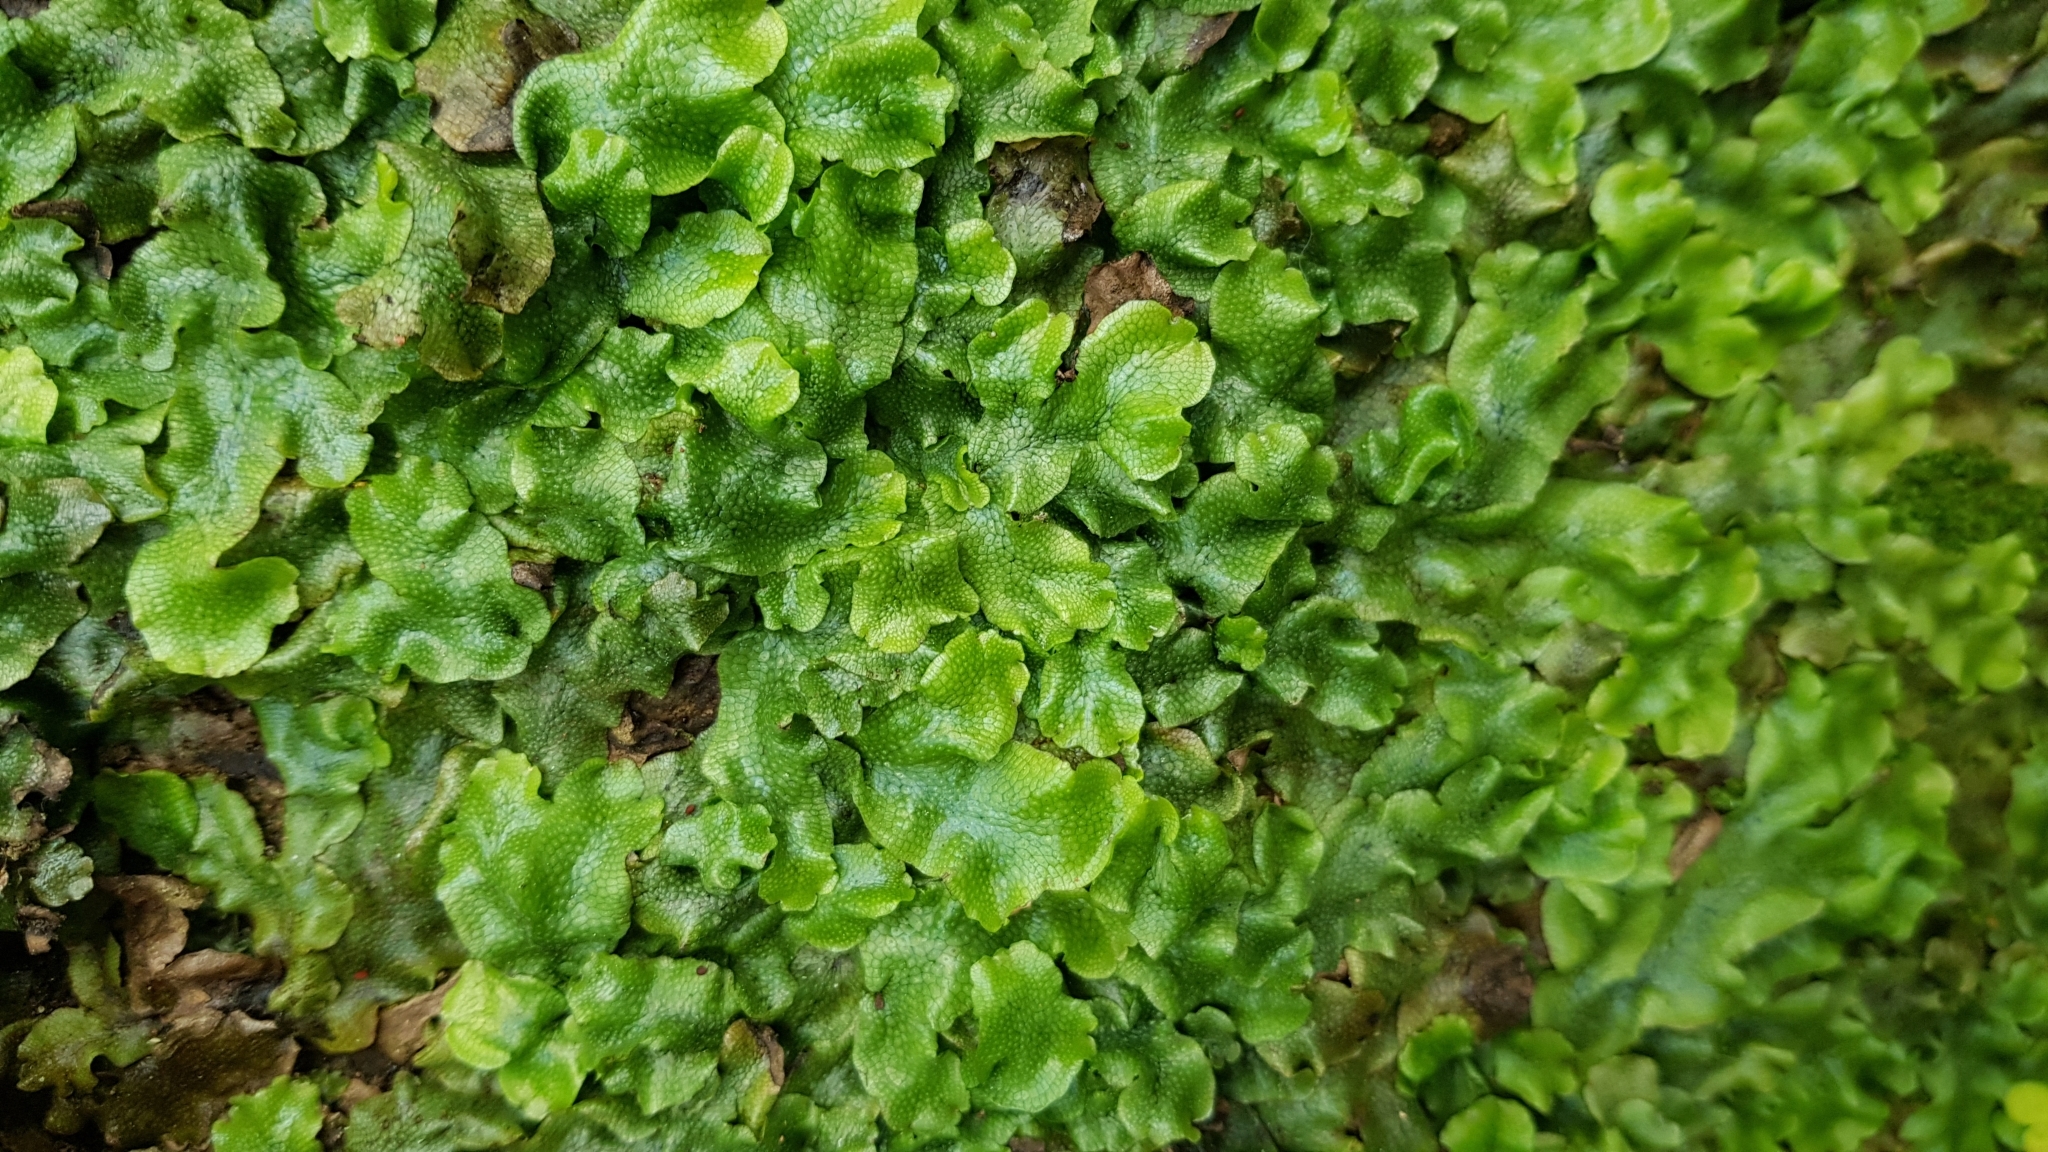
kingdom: Plantae
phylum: Marchantiophyta
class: Marchantiopsida
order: Marchantiales
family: Conocephalaceae
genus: Conocephalum
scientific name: Conocephalum salebrosum
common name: Cat-tongue liverwort
